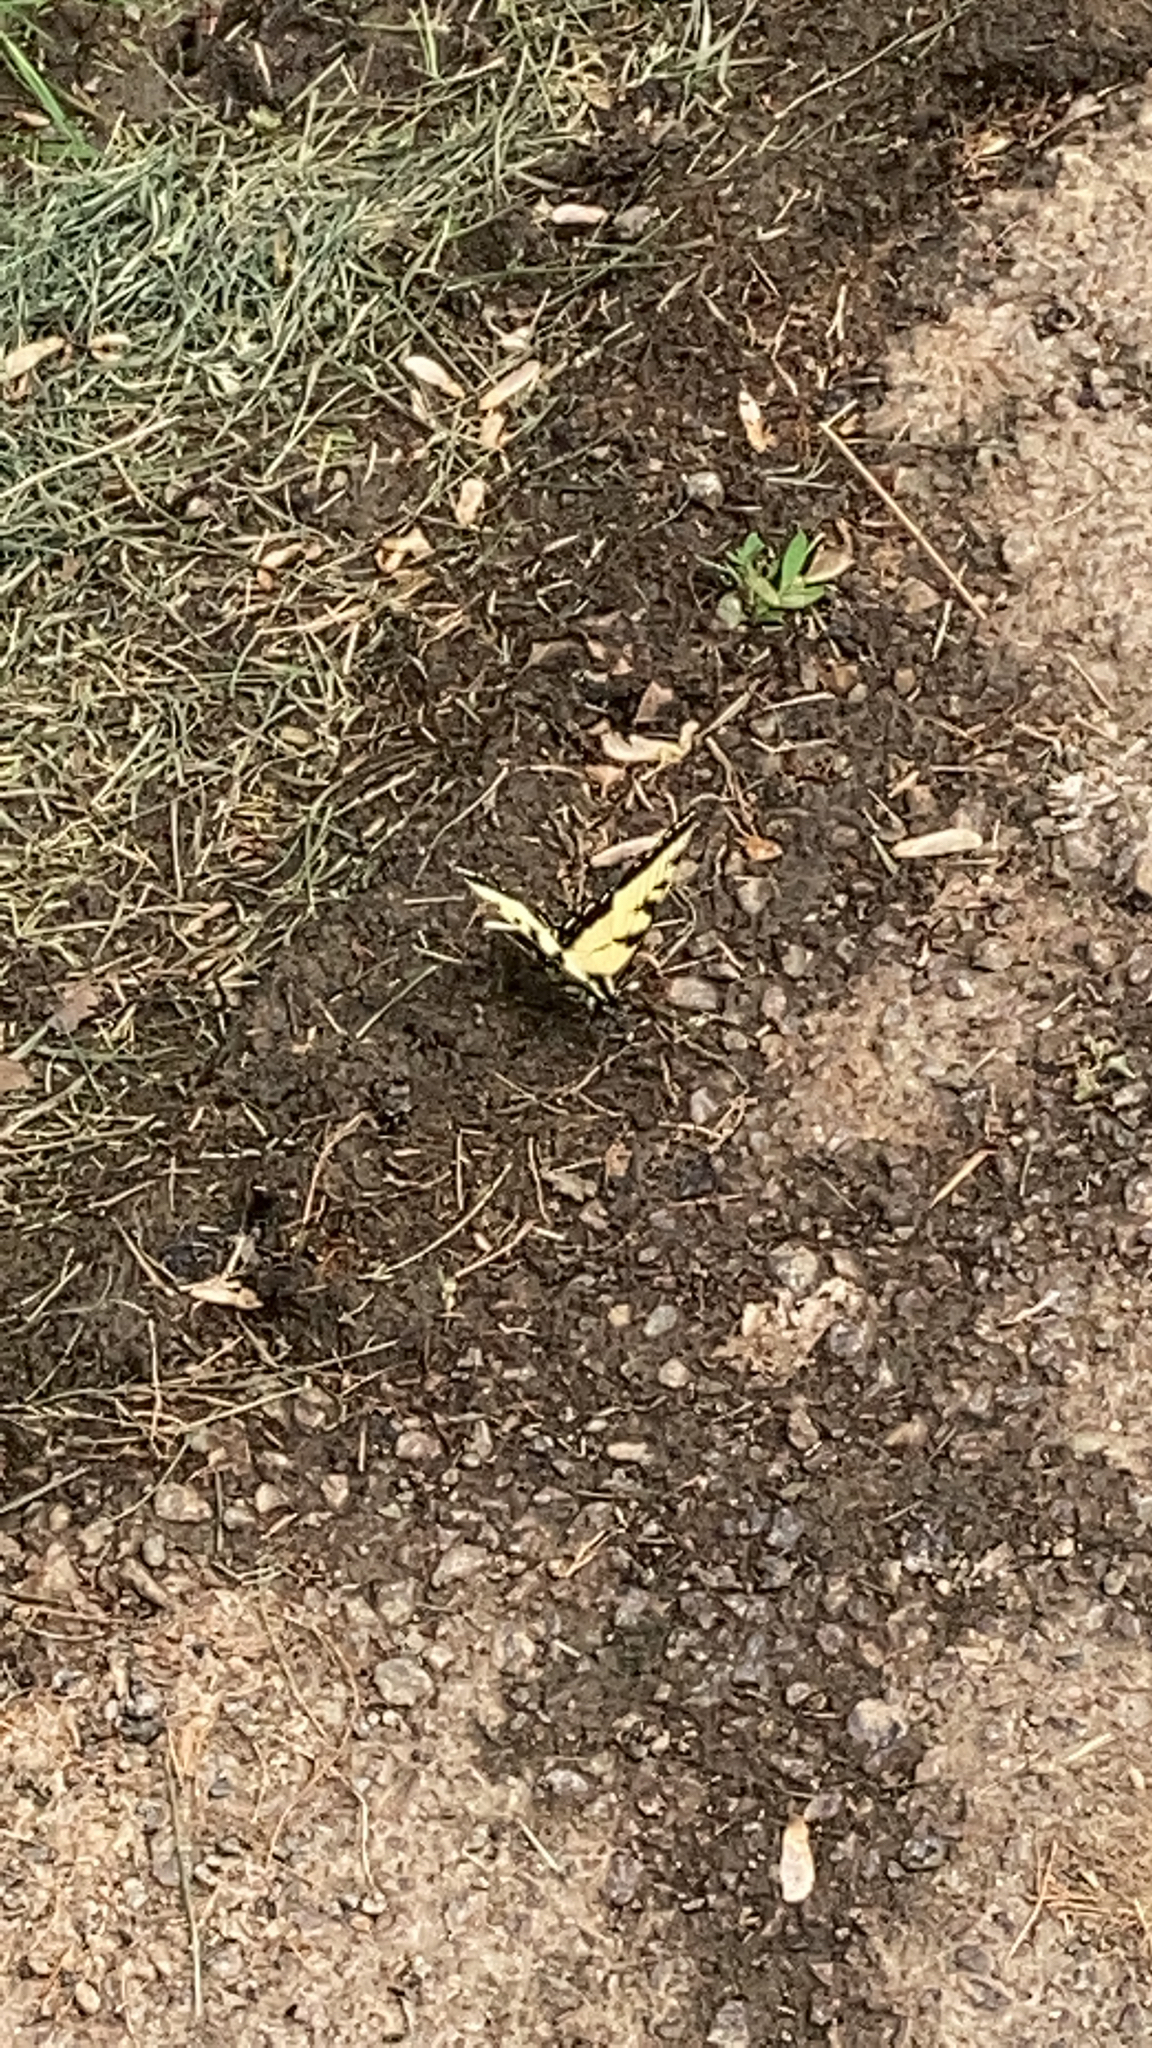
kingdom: Animalia
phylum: Arthropoda
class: Insecta
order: Lepidoptera
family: Papilionidae
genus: Papilio
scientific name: Papilio glaucus
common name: Tiger swallowtail
